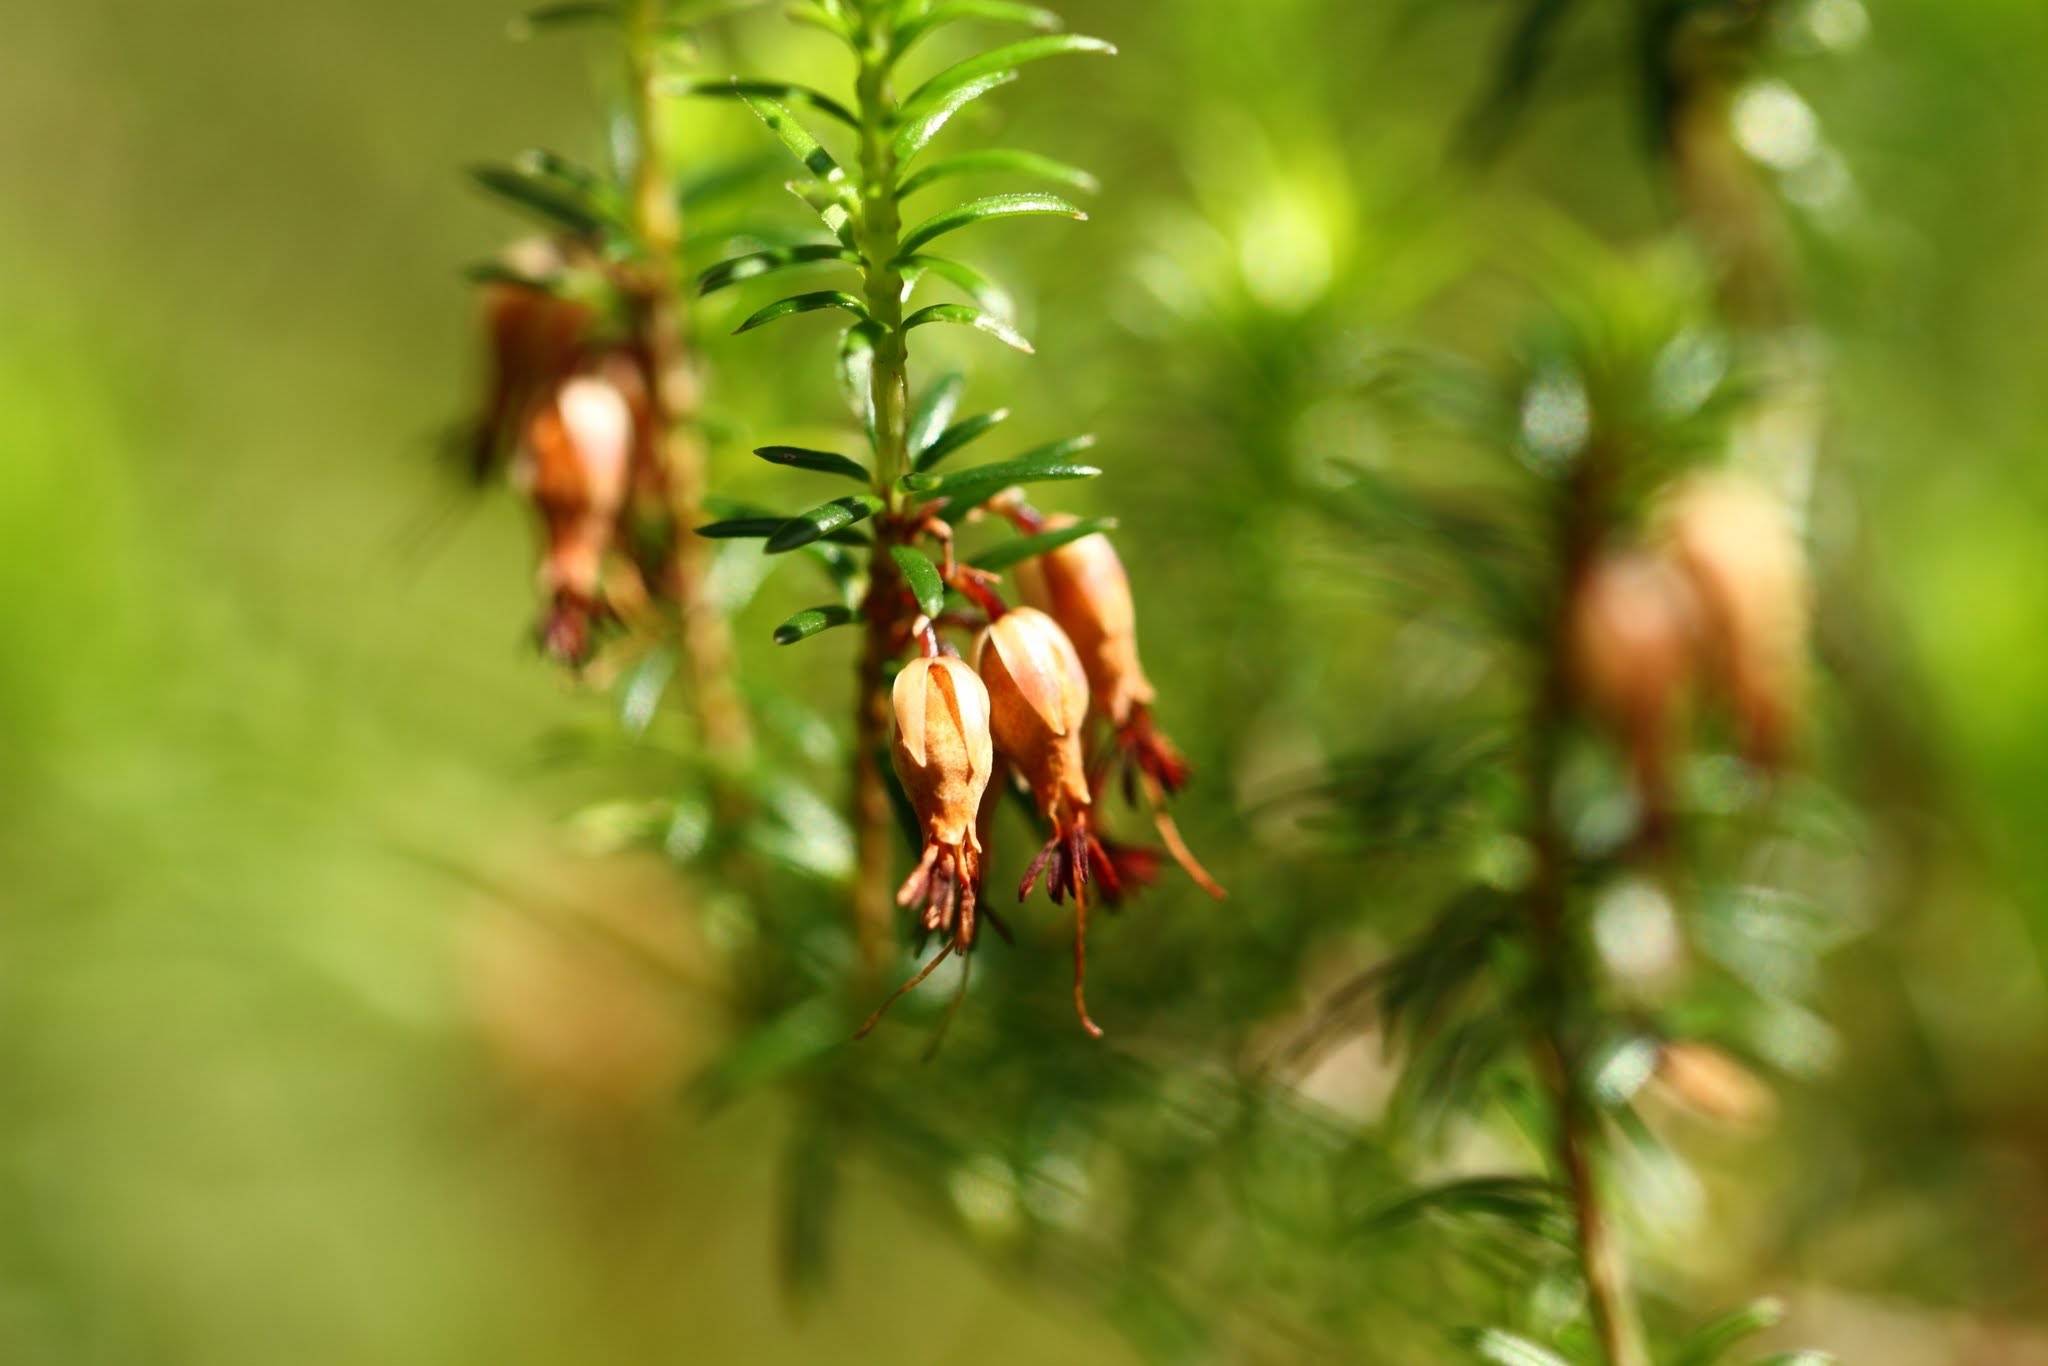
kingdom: Plantae
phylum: Tracheophyta
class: Magnoliopsida
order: Ericales
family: Ericaceae
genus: Erica
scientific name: Erica carnea
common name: Winter heath
